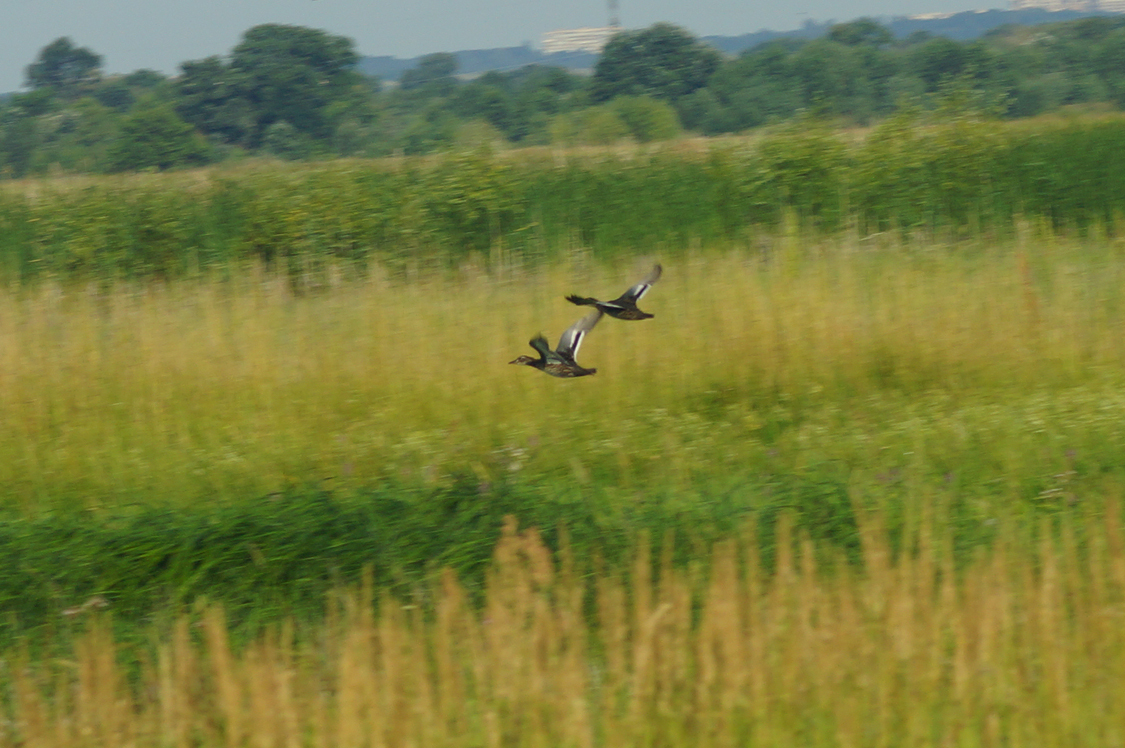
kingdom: Animalia
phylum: Chordata
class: Aves
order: Anseriformes
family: Anatidae
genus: Spatula
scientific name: Spatula querquedula
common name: Garganey
